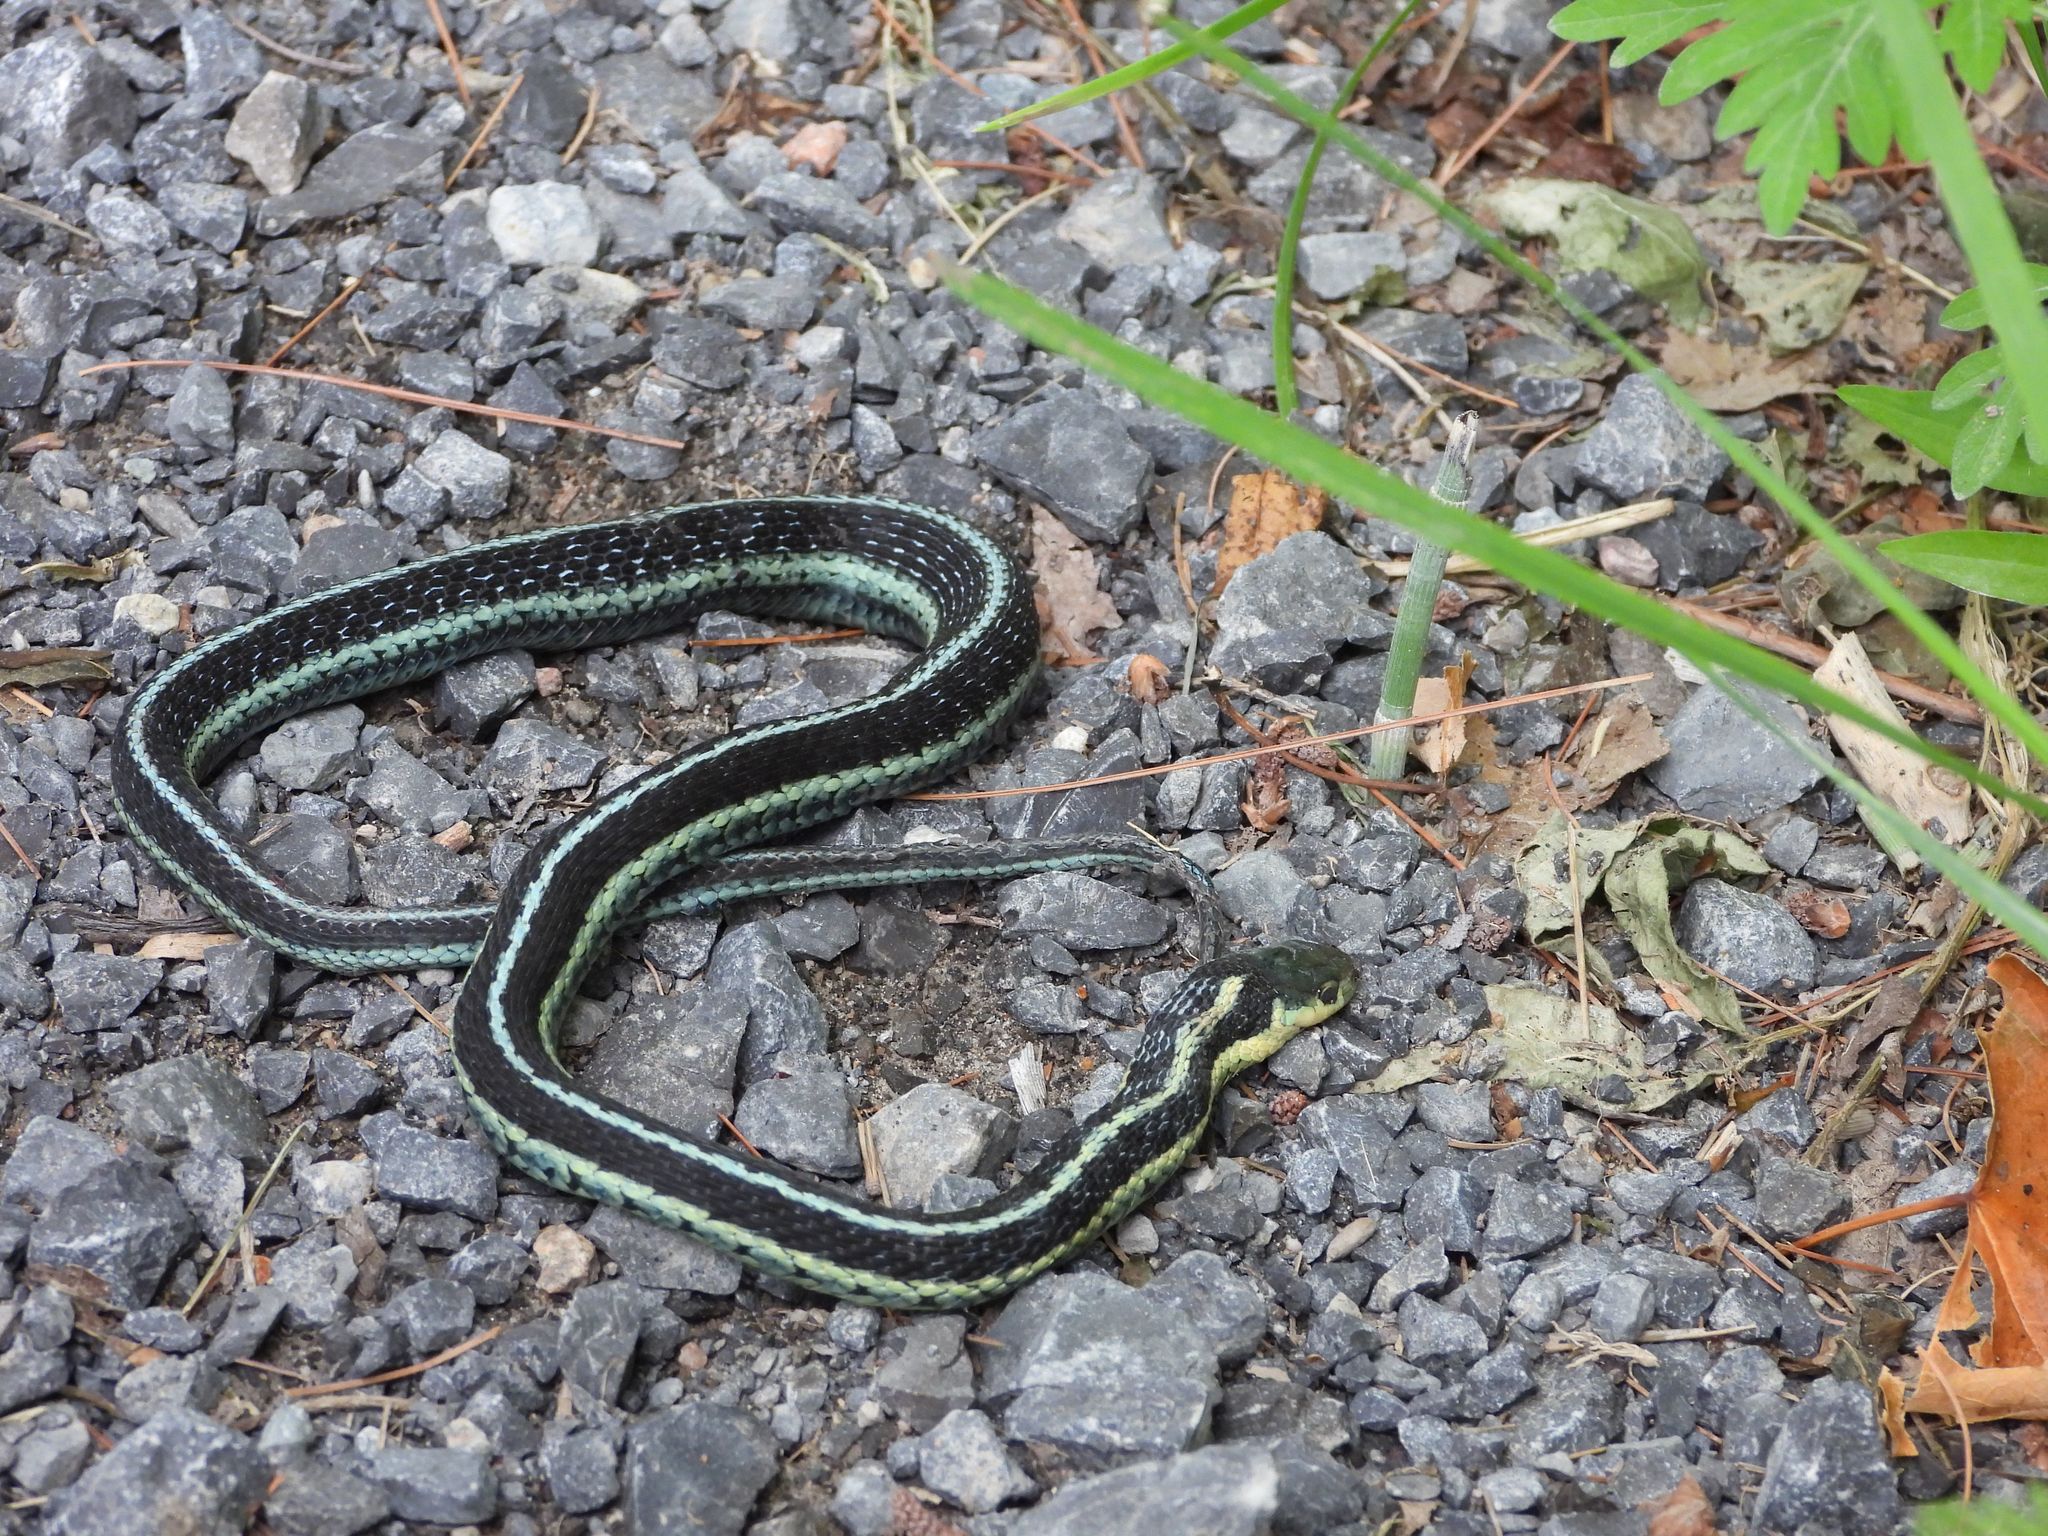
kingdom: Animalia
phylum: Chordata
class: Squamata
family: Colubridae
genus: Thamnophis
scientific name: Thamnophis sirtalis
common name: Common garter snake
